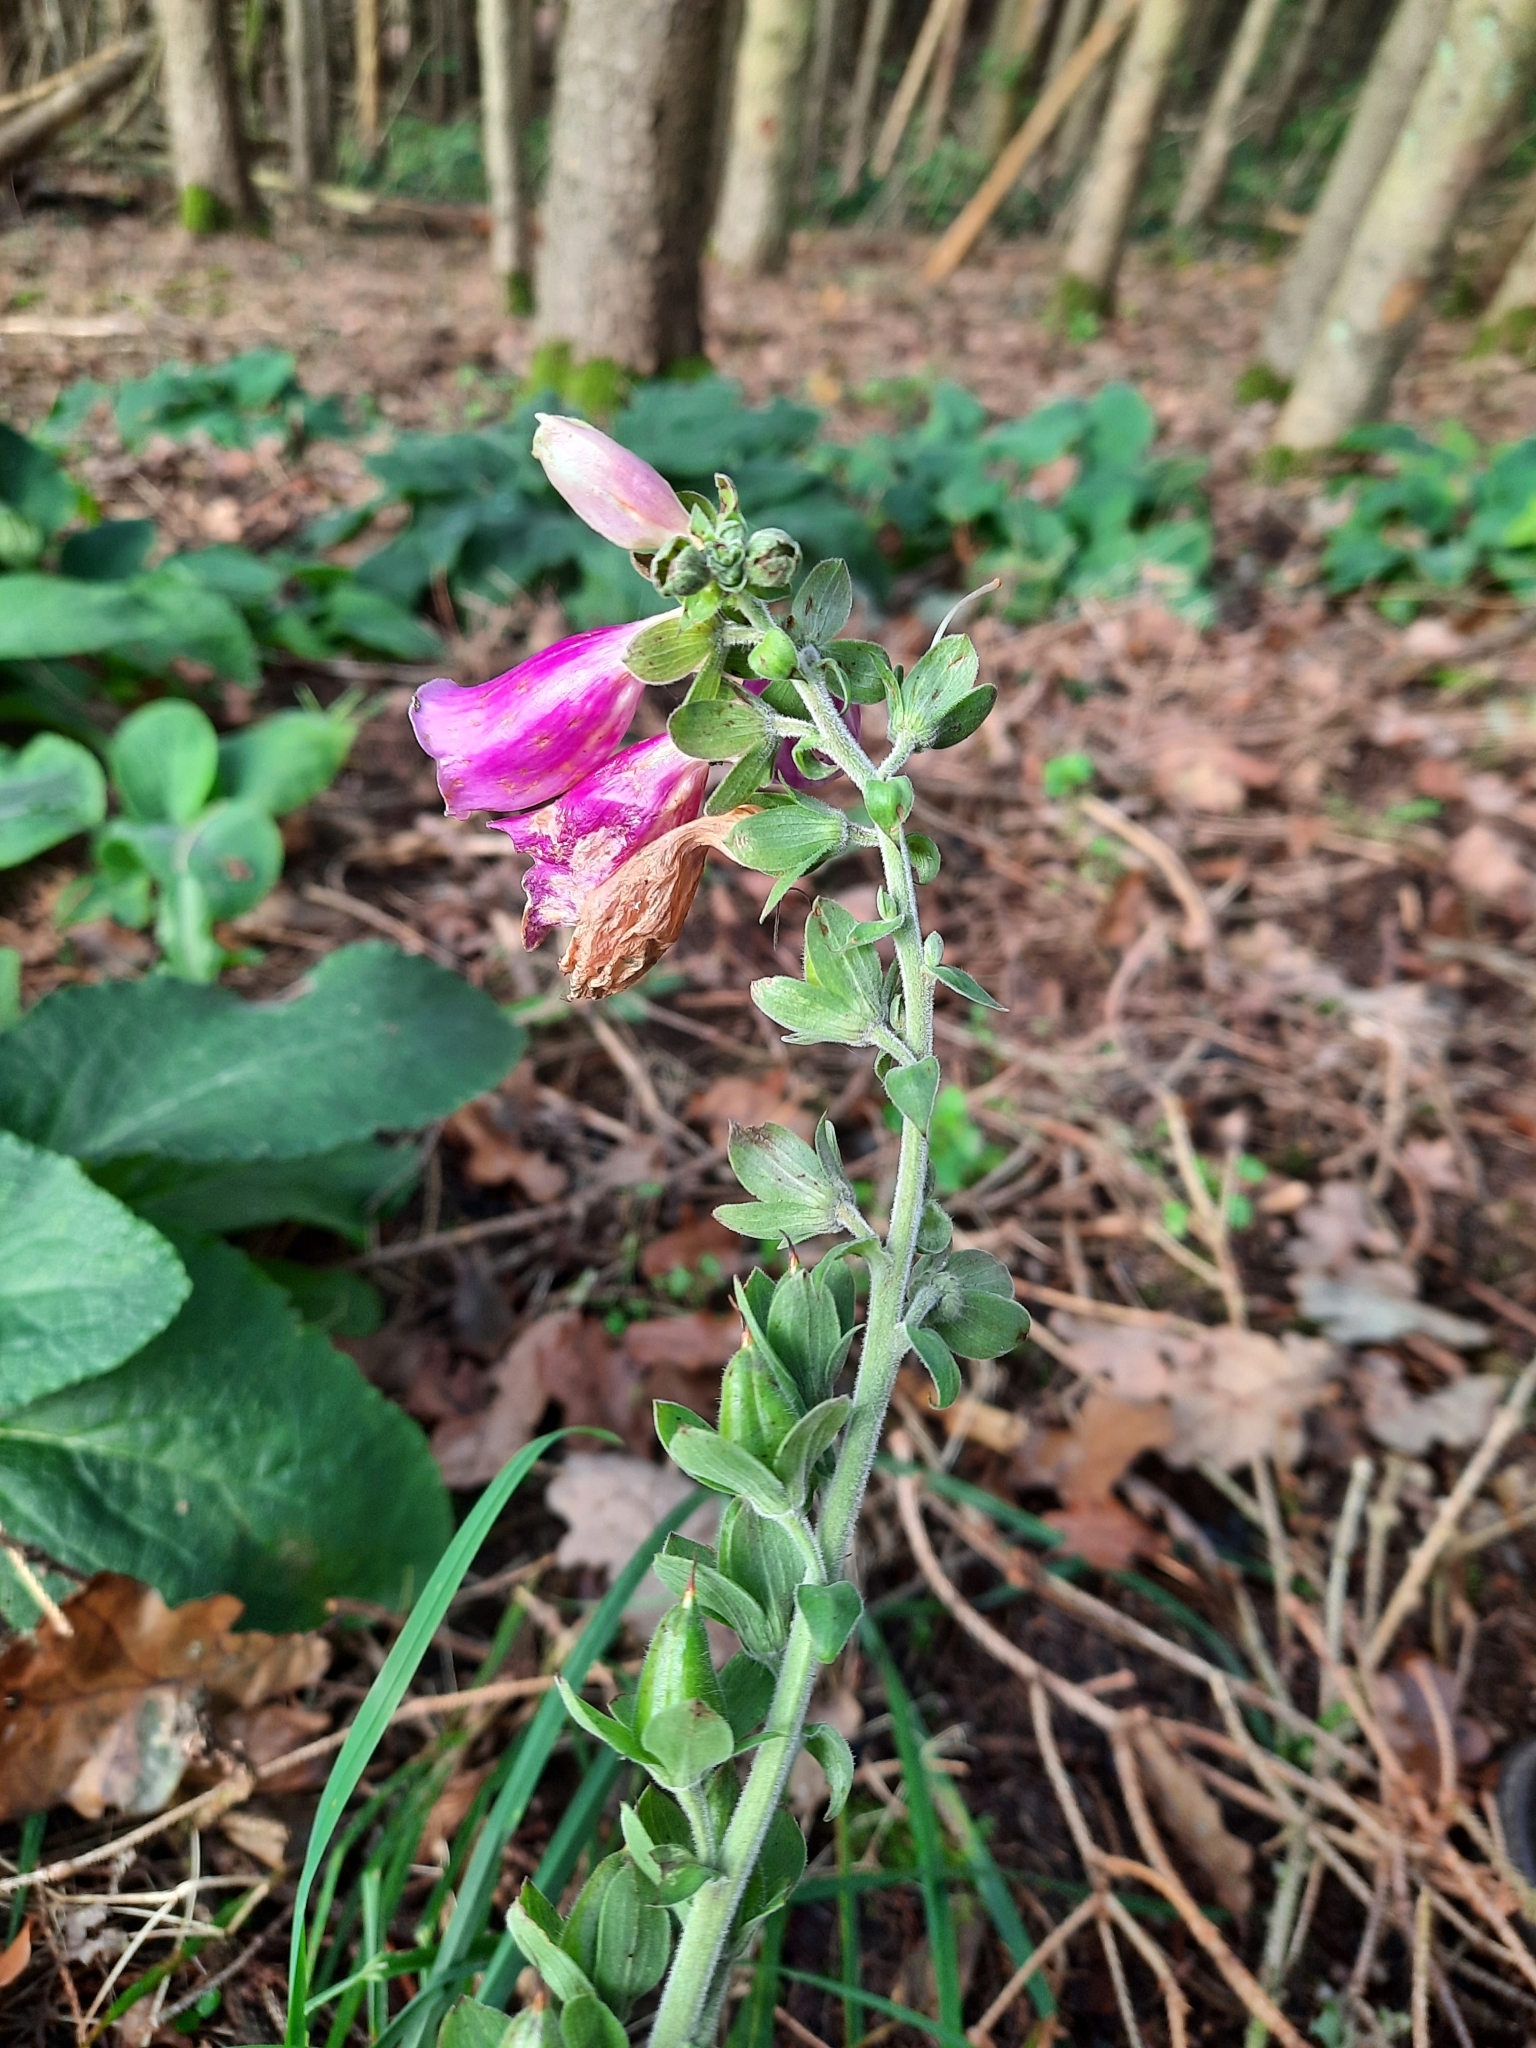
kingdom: Plantae
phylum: Tracheophyta
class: Magnoliopsida
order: Lamiales
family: Plantaginaceae
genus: Digitalis
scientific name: Digitalis purpurea
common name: Foxglove
